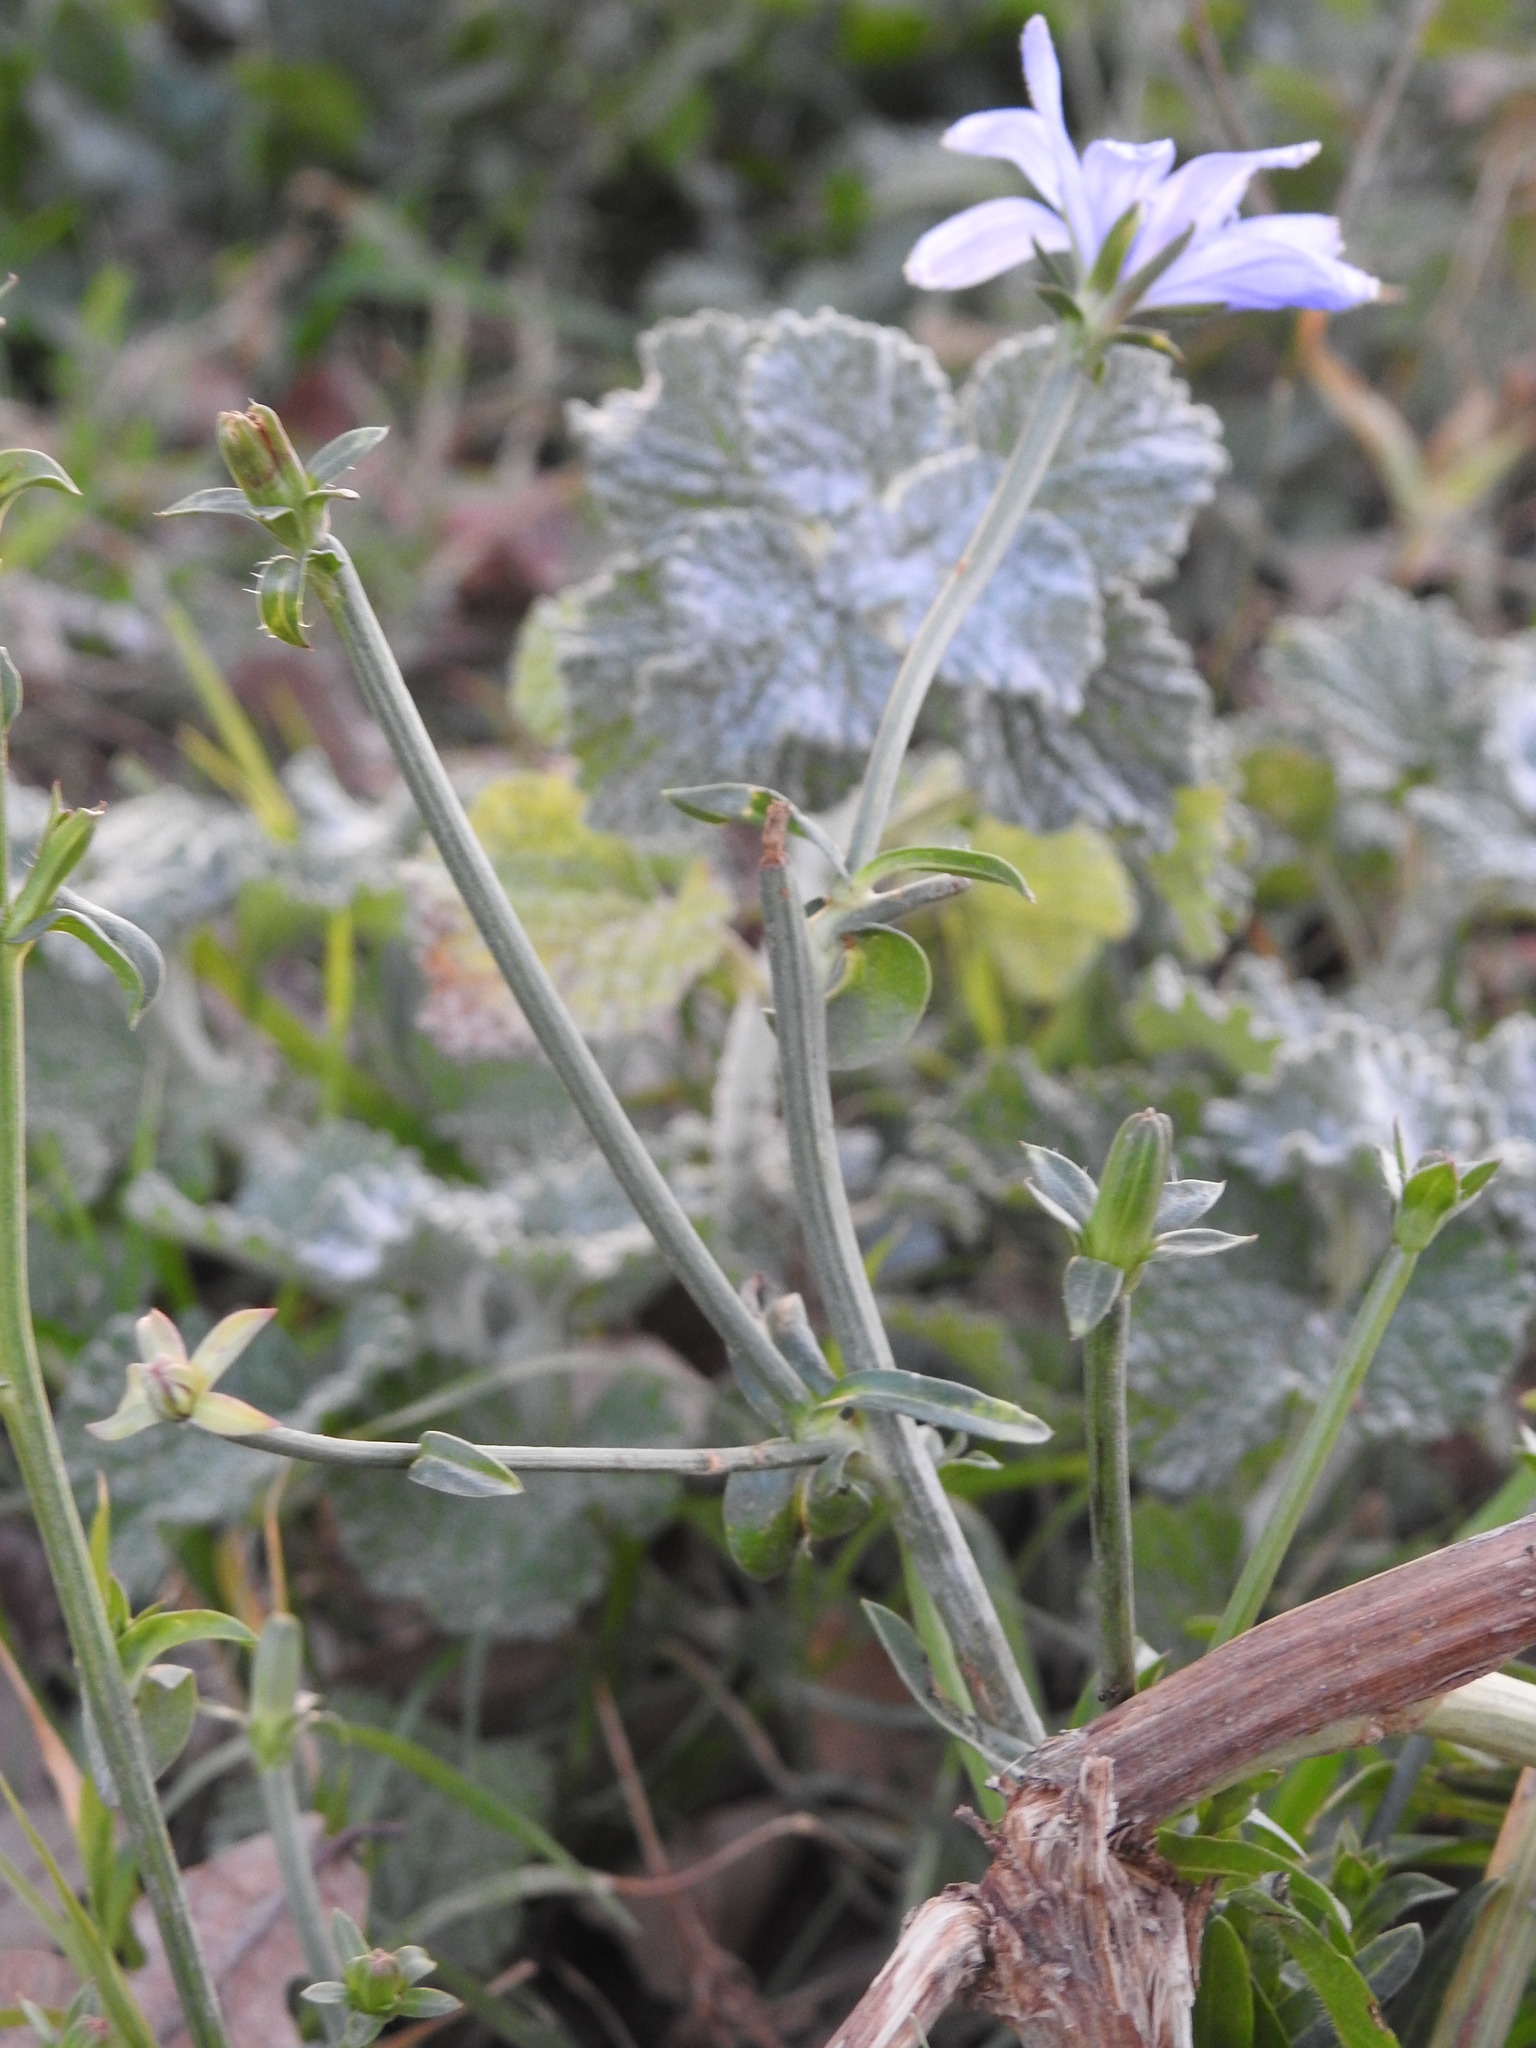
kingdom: Plantae
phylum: Tracheophyta
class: Magnoliopsida
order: Asterales
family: Asteraceae
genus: Cichorium
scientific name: Cichorium intybus
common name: Chicory
